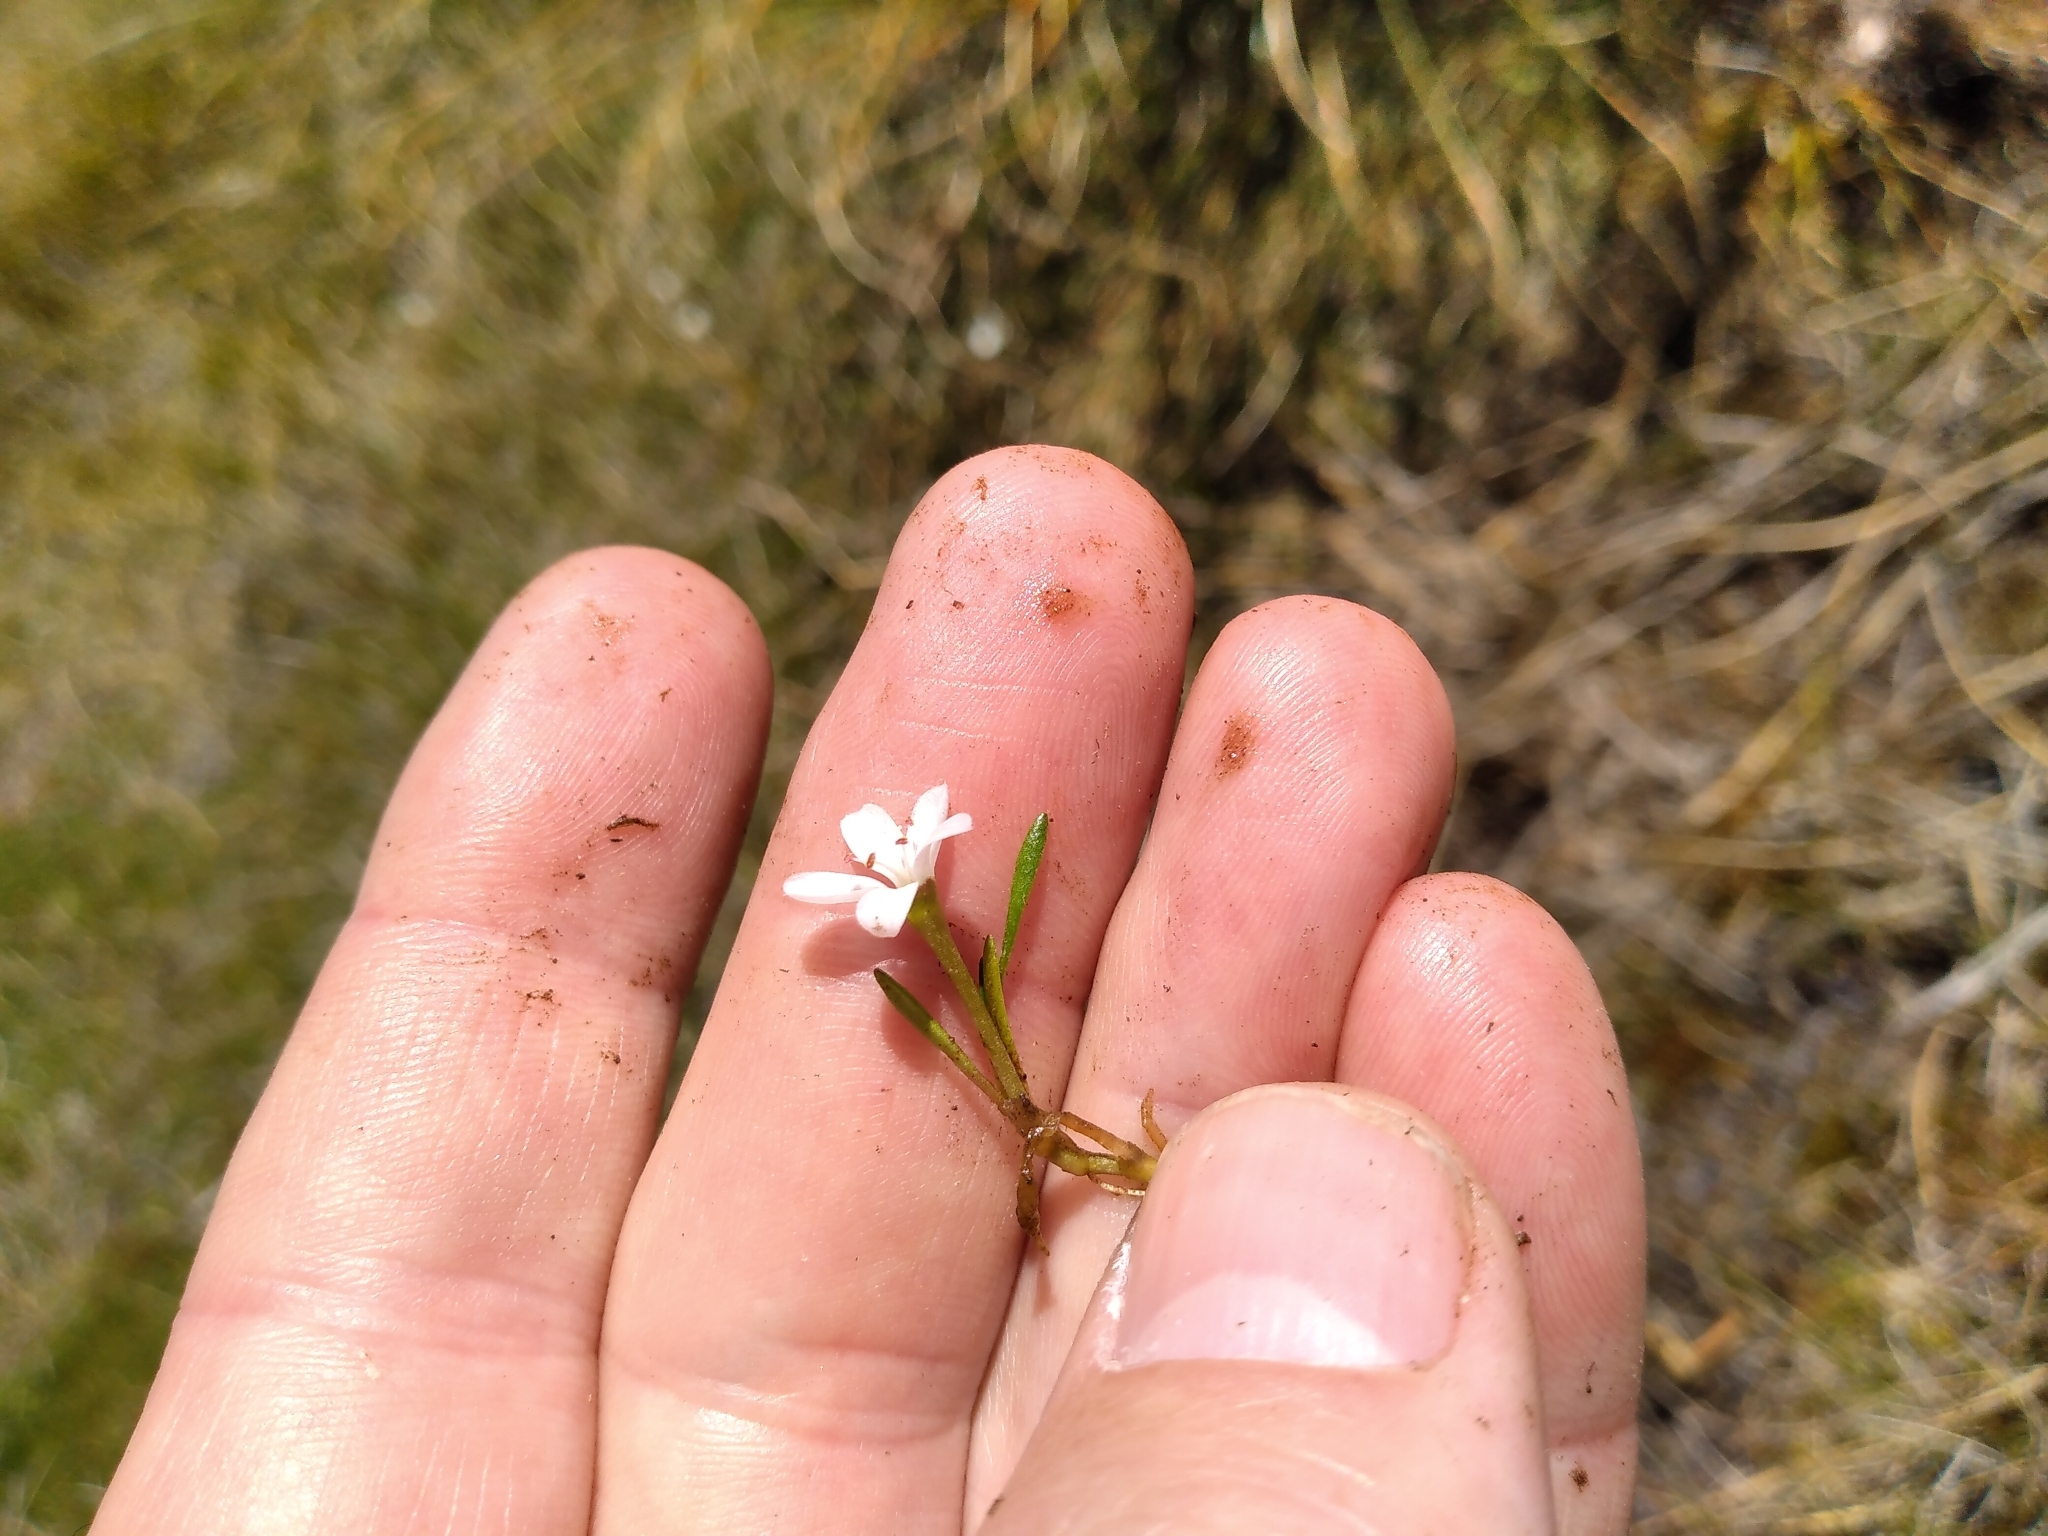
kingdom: Plantae
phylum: Tracheophyta
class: Magnoliopsida
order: Caryophyllales
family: Montiaceae
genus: Montia
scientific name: Montia sessiliflora
